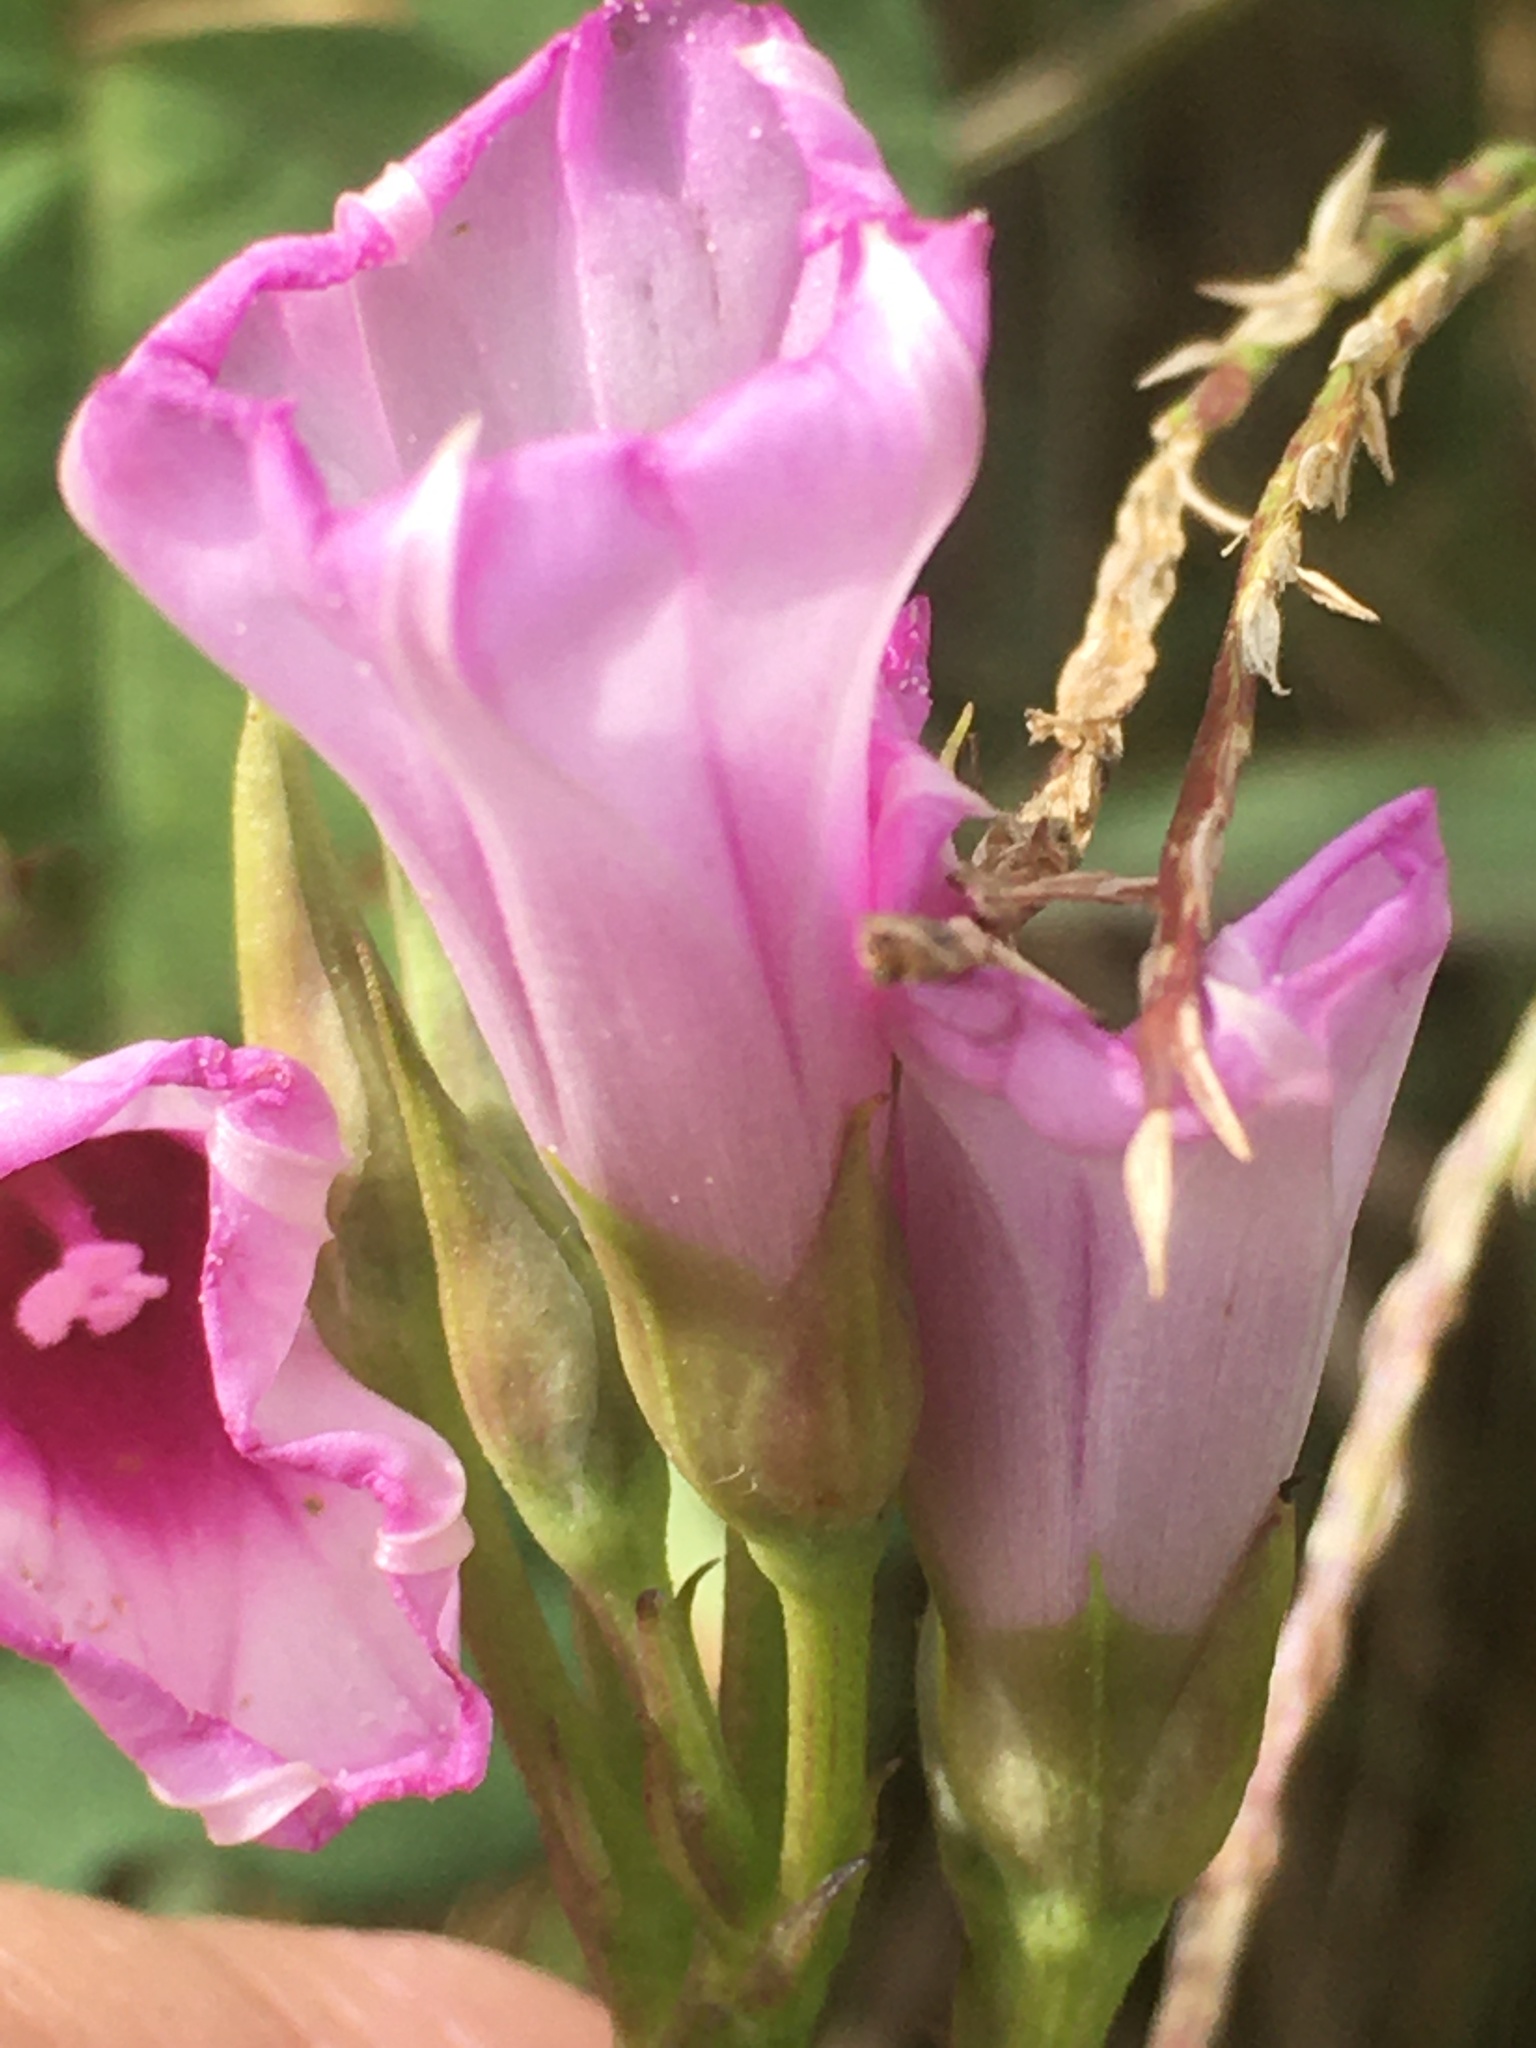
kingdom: Plantae
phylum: Tracheophyta
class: Magnoliopsida
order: Solanales
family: Convolvulaceae
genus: Ipomoea
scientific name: Ipomoea hederacea
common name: Ivy-leaved morning-glory
